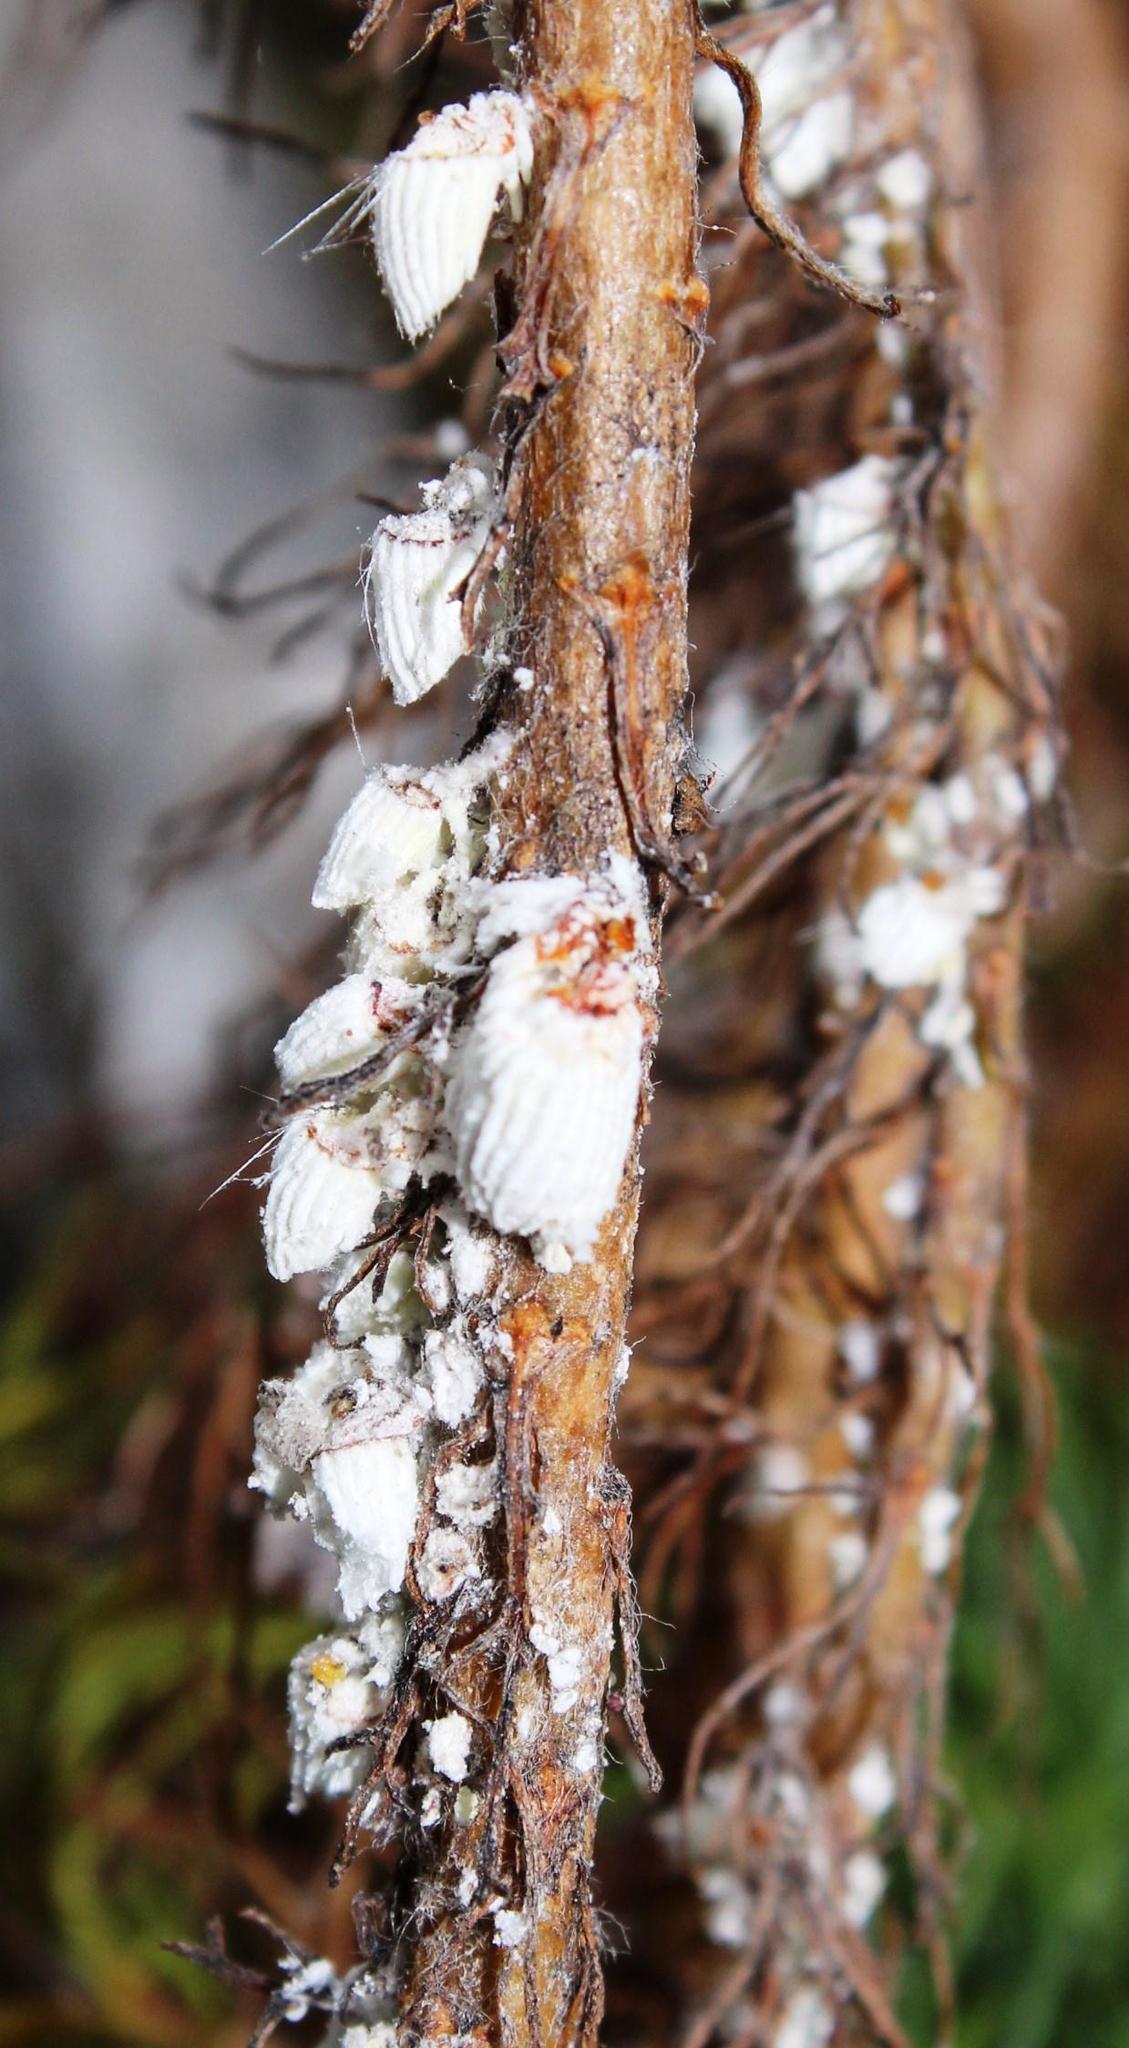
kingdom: Animalia
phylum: Arthropoda
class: Insecta
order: Hemiptera
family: Margarodidae
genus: Icerya
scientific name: Icerya purchasi
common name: Cottony cushion scale
